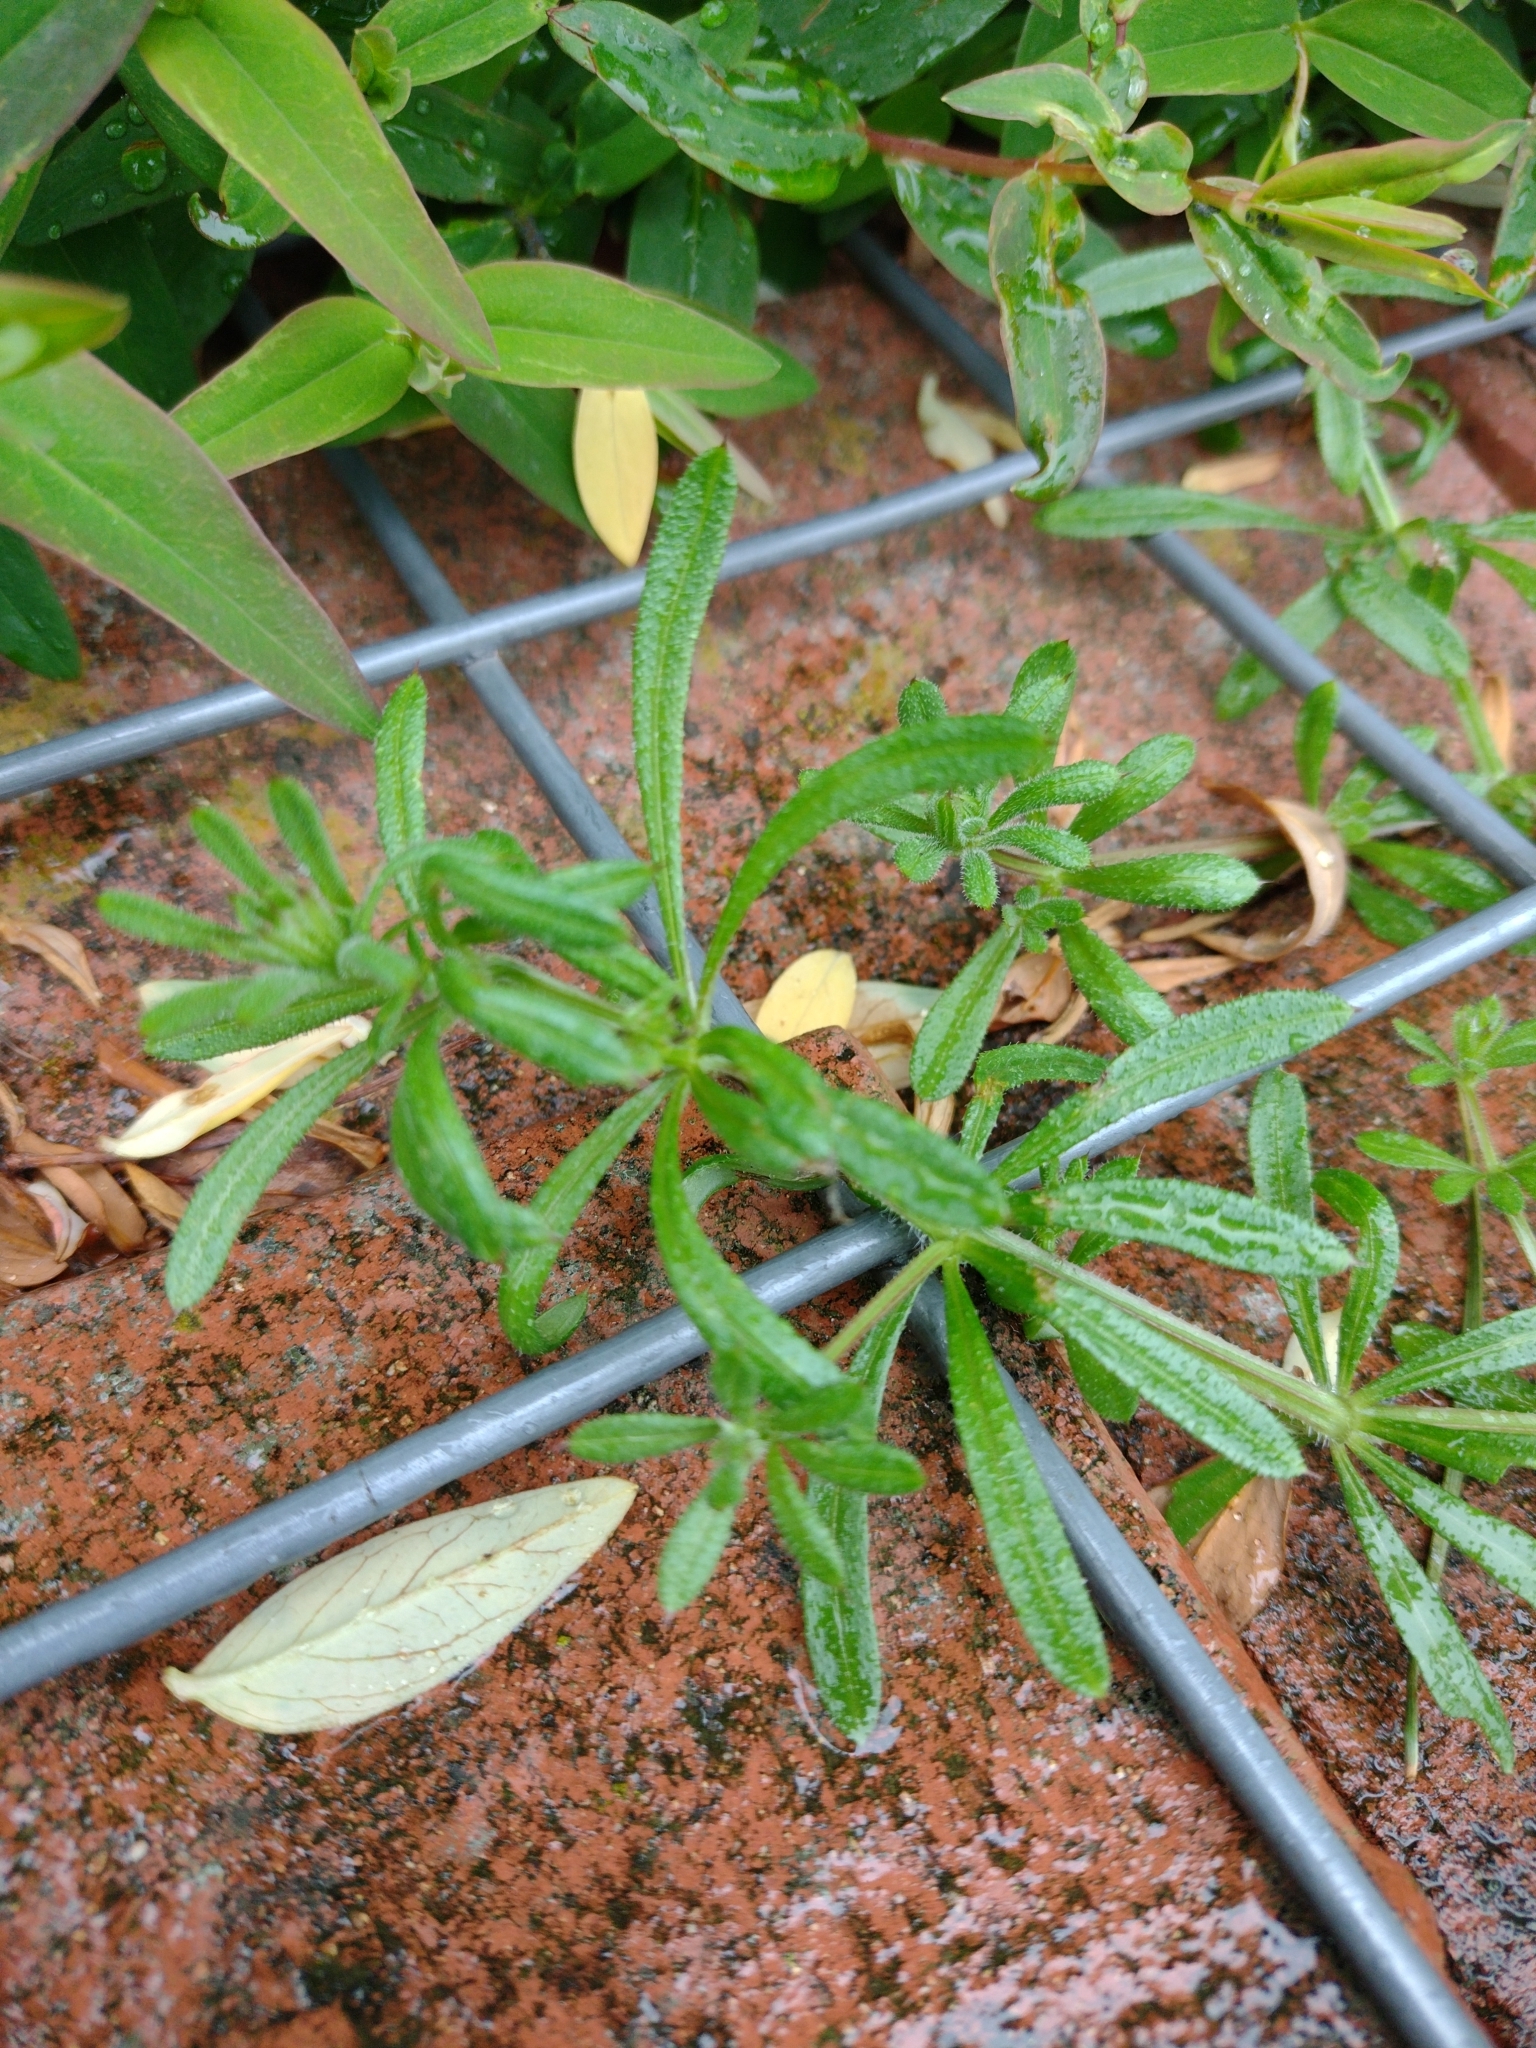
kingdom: Plantae
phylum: Tracheophyta
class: Magnoliopsida
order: Gentianales
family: Rubiaceae
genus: Galium
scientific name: Galium aparine
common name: Cleavers
